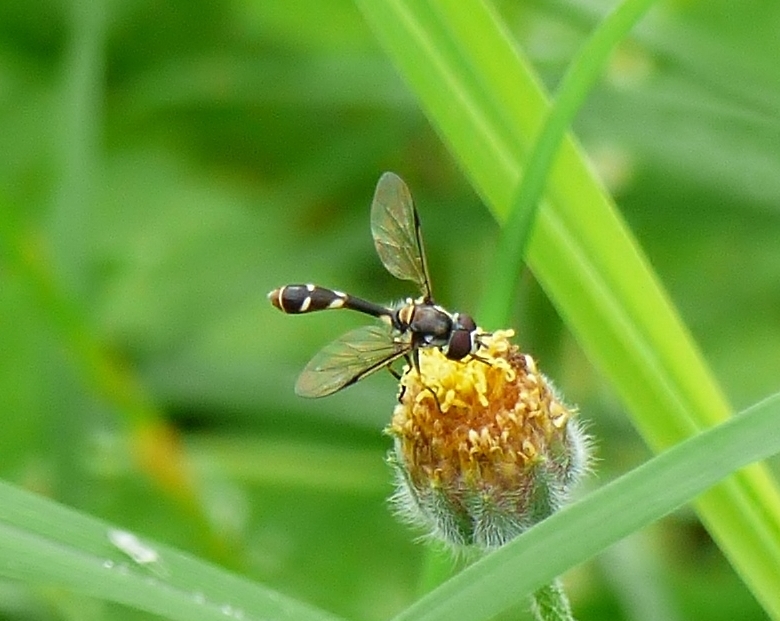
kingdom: Animalia
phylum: Arthropoda
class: Insecta
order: Diptera
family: Syrphidae
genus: Dioprosopa
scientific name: Dioprosopa clavatus
